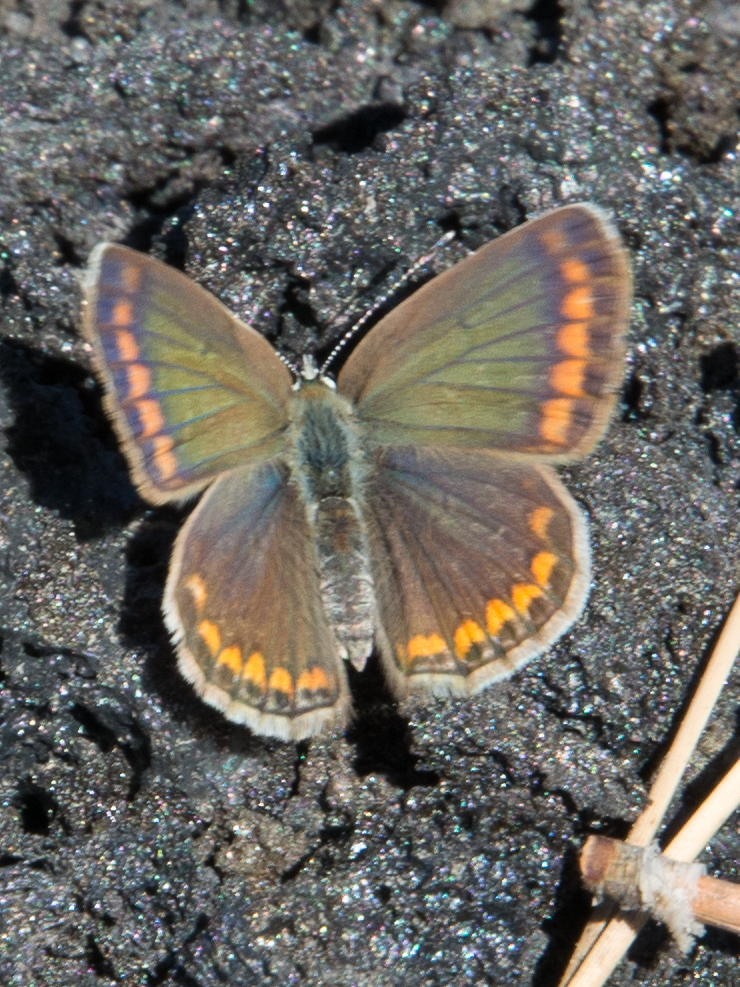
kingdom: Animalia
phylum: Arthropoda
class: Insecta
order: Lepidoptera
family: Lycaenidae
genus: Polyommatus
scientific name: Polyommatus celina
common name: Austaut's blue
